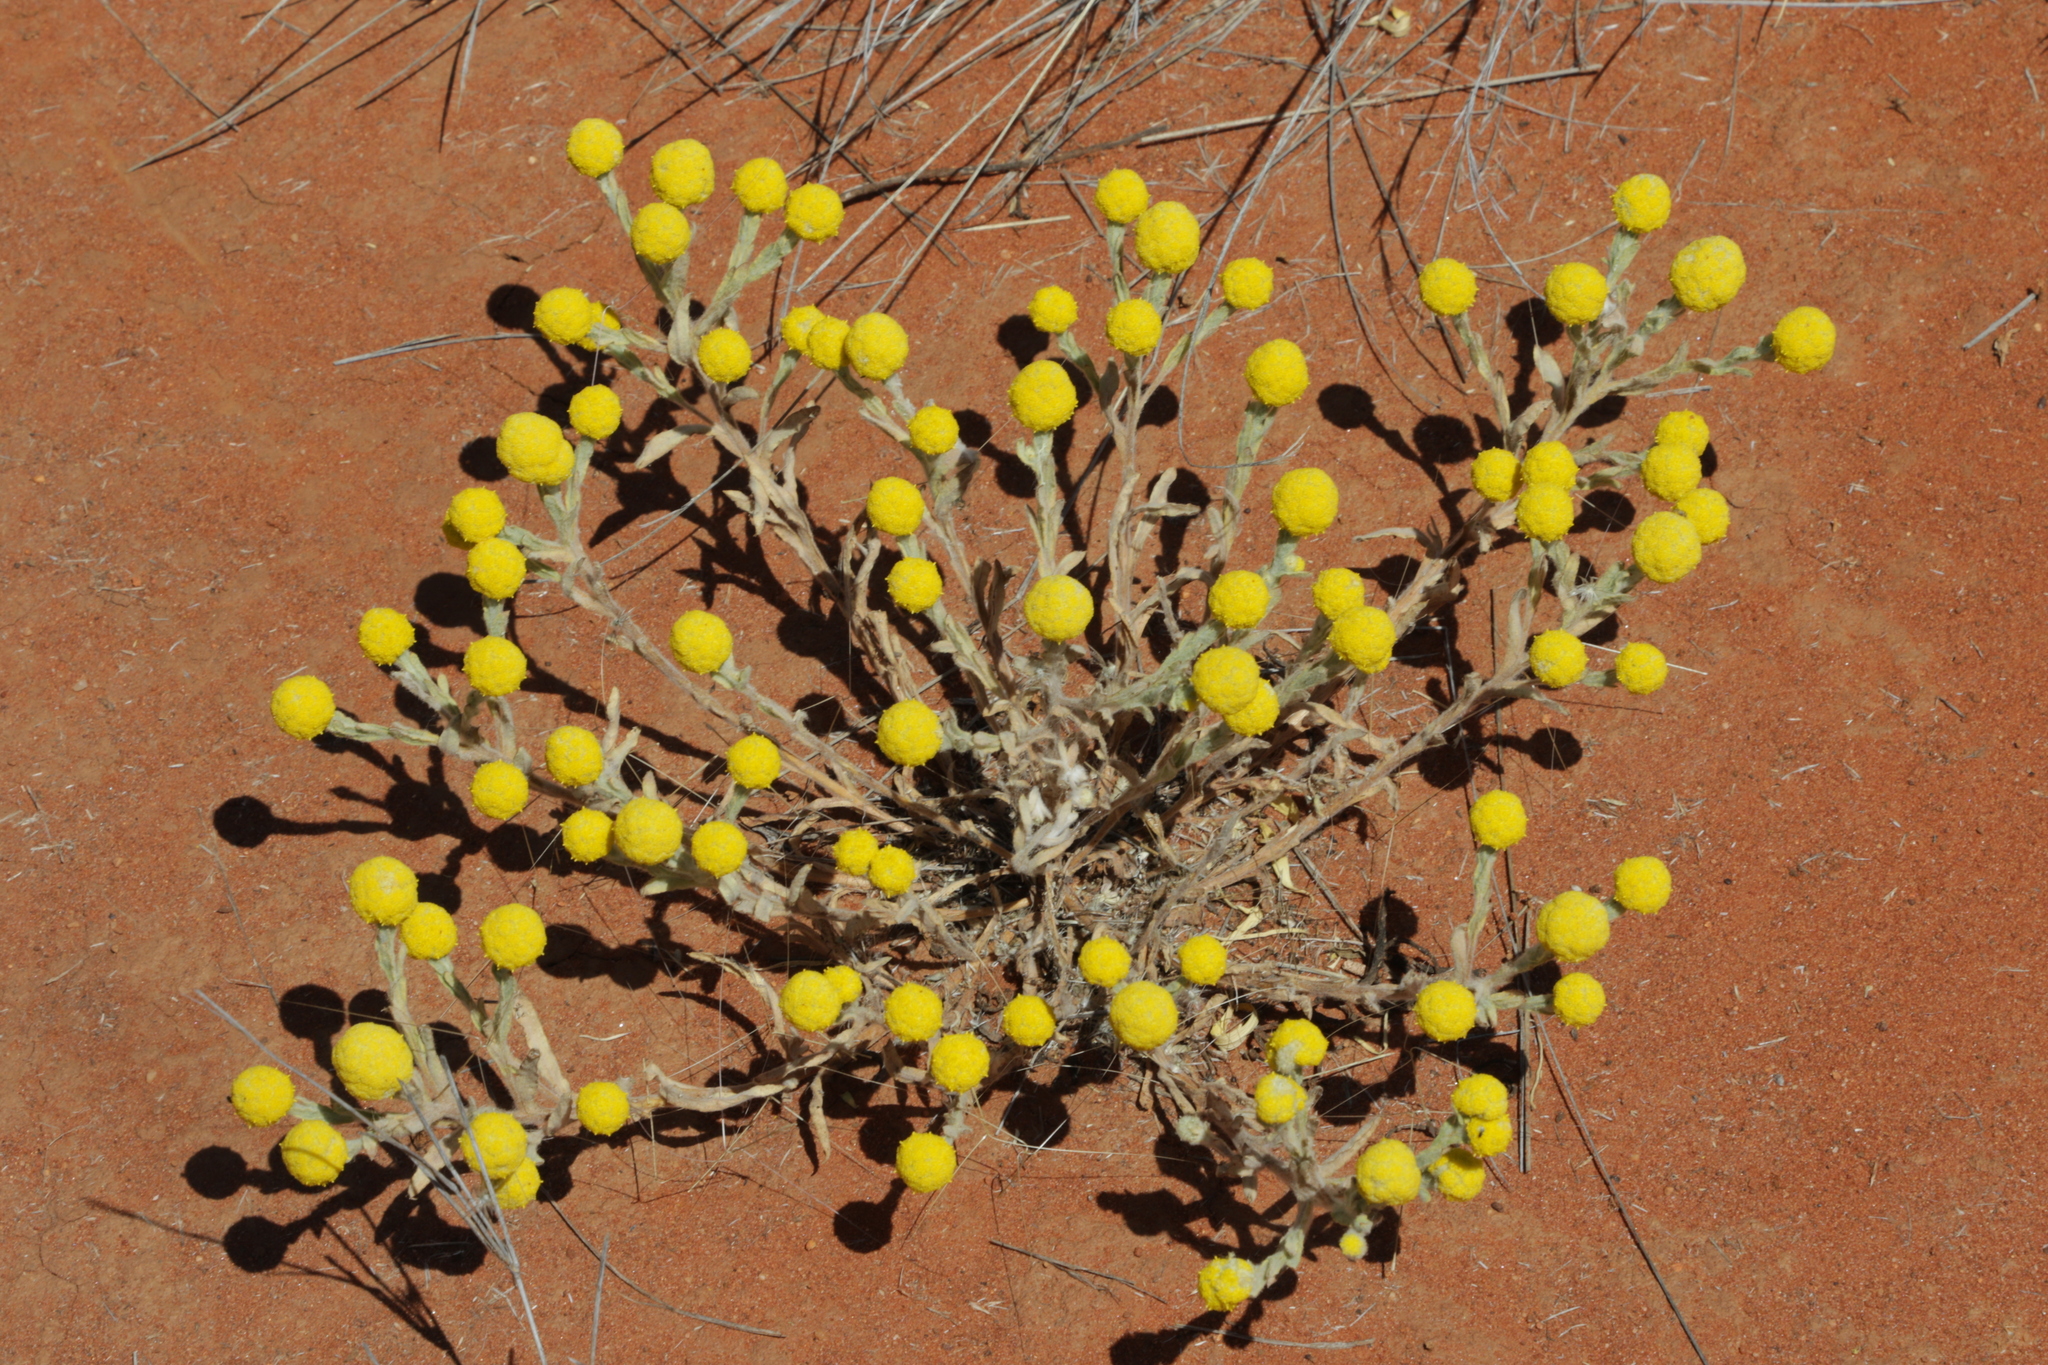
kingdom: Plantae
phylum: Tracheophyta
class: Magnoliopsida
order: Asterales
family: Asteraceae
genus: Calocephalus
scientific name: Calocephalus knappii
